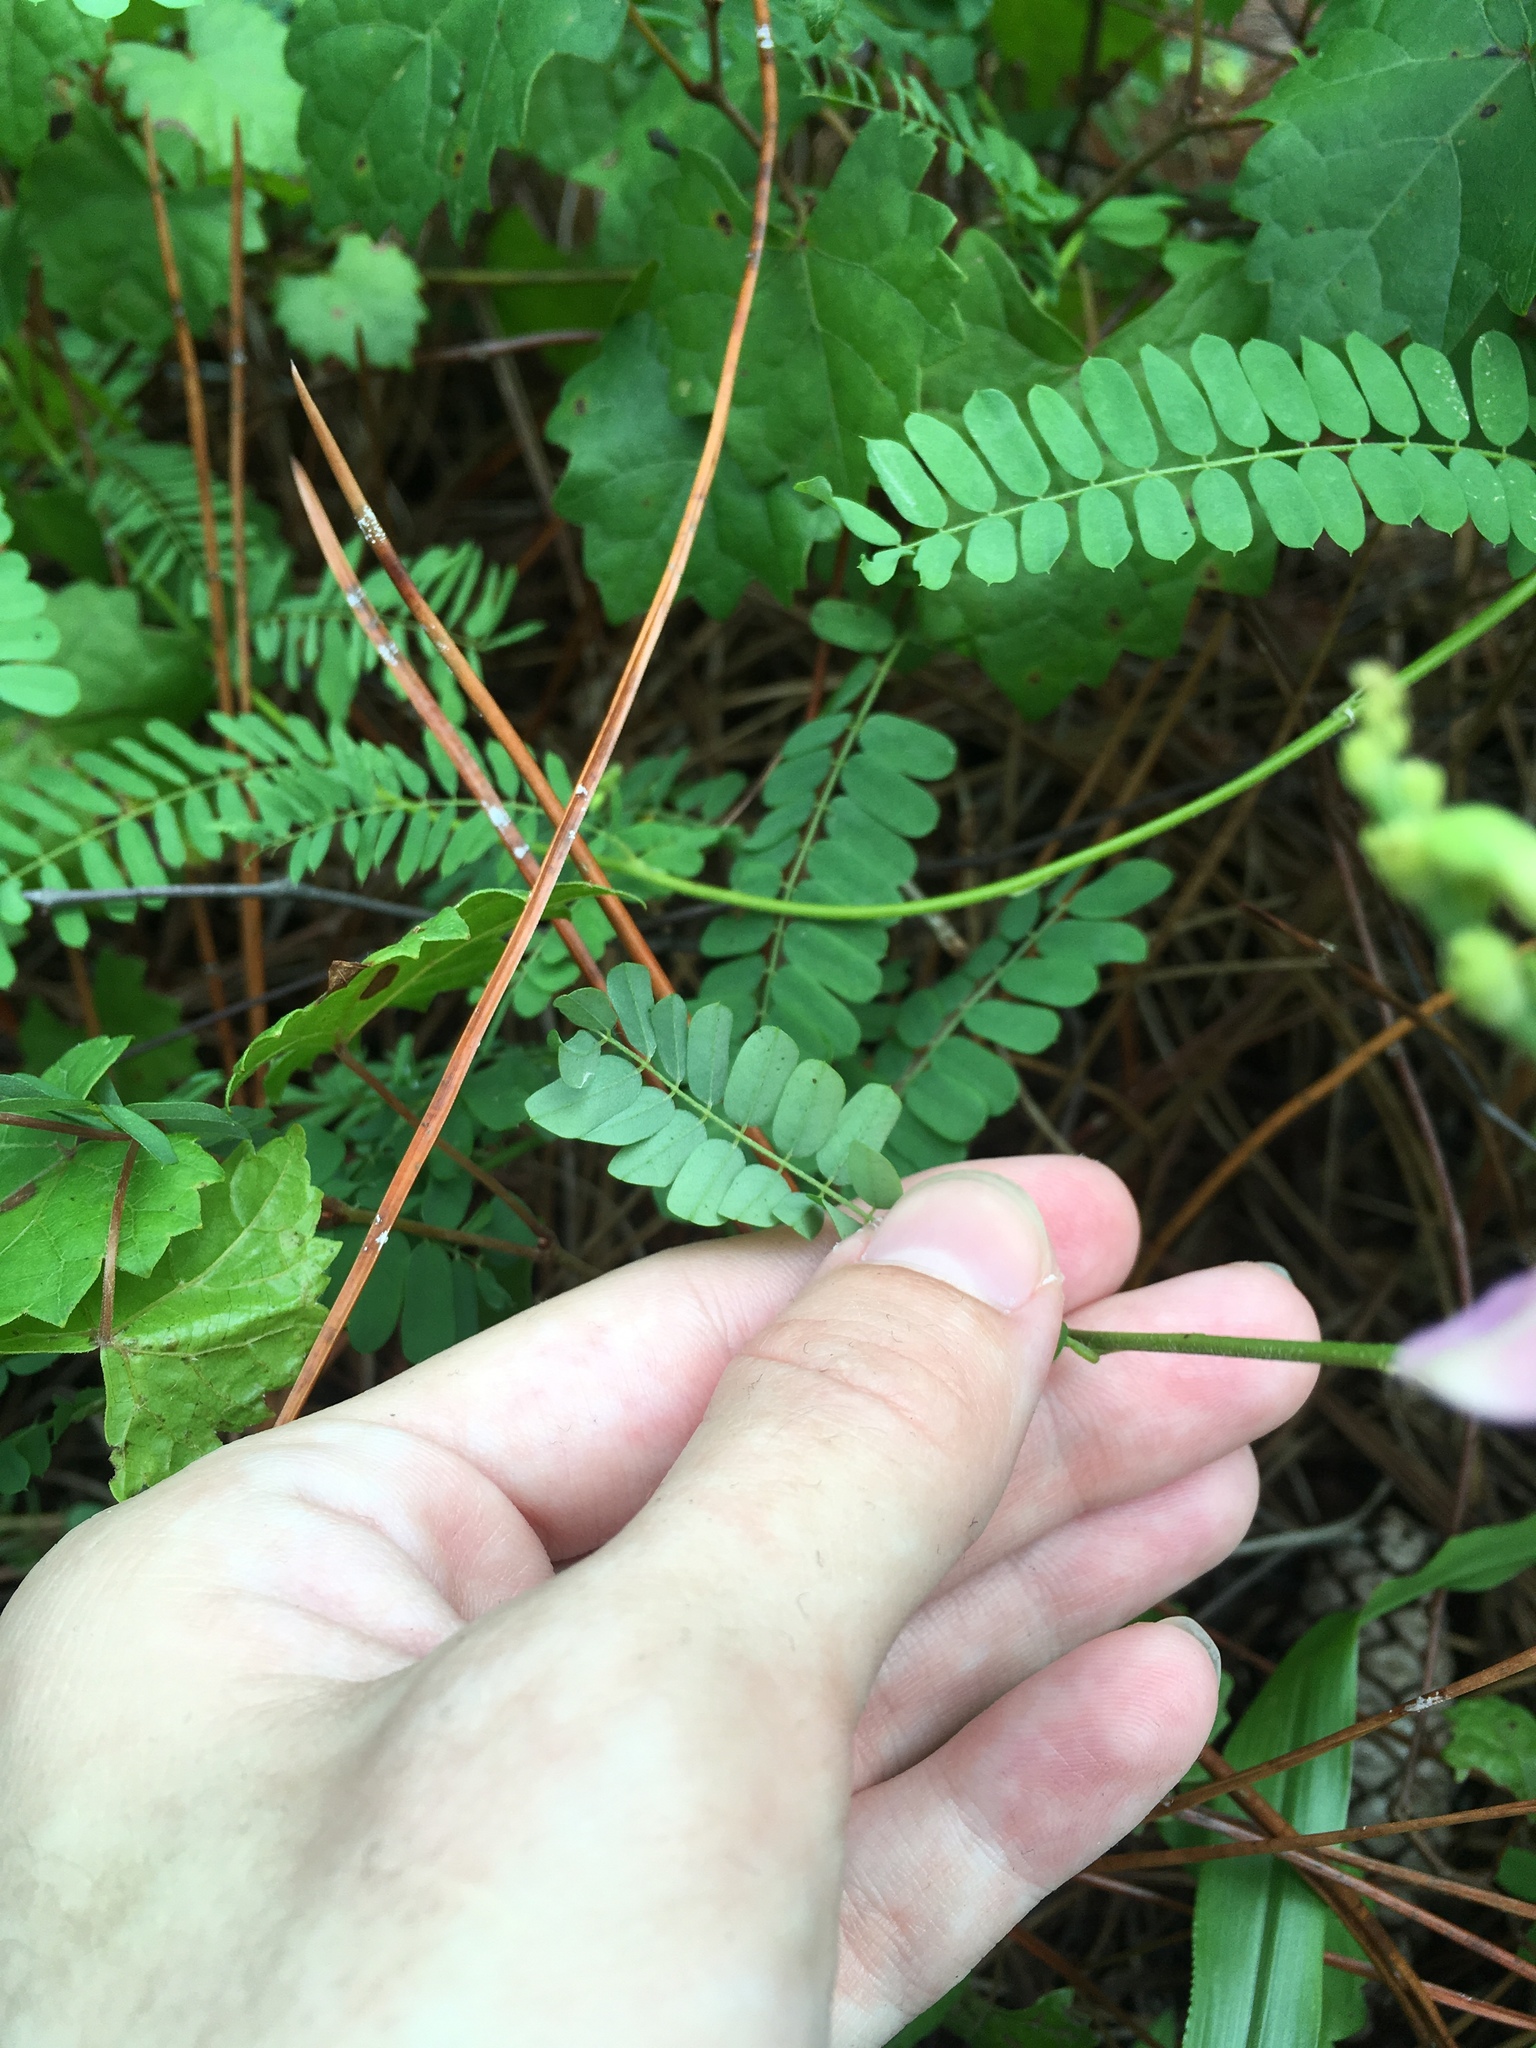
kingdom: Plantae
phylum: Tracheophyta
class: Magnoliopsida
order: Fabales
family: Fabaceae
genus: Abrus
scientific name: Abrus precatorius
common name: Rosarypea
